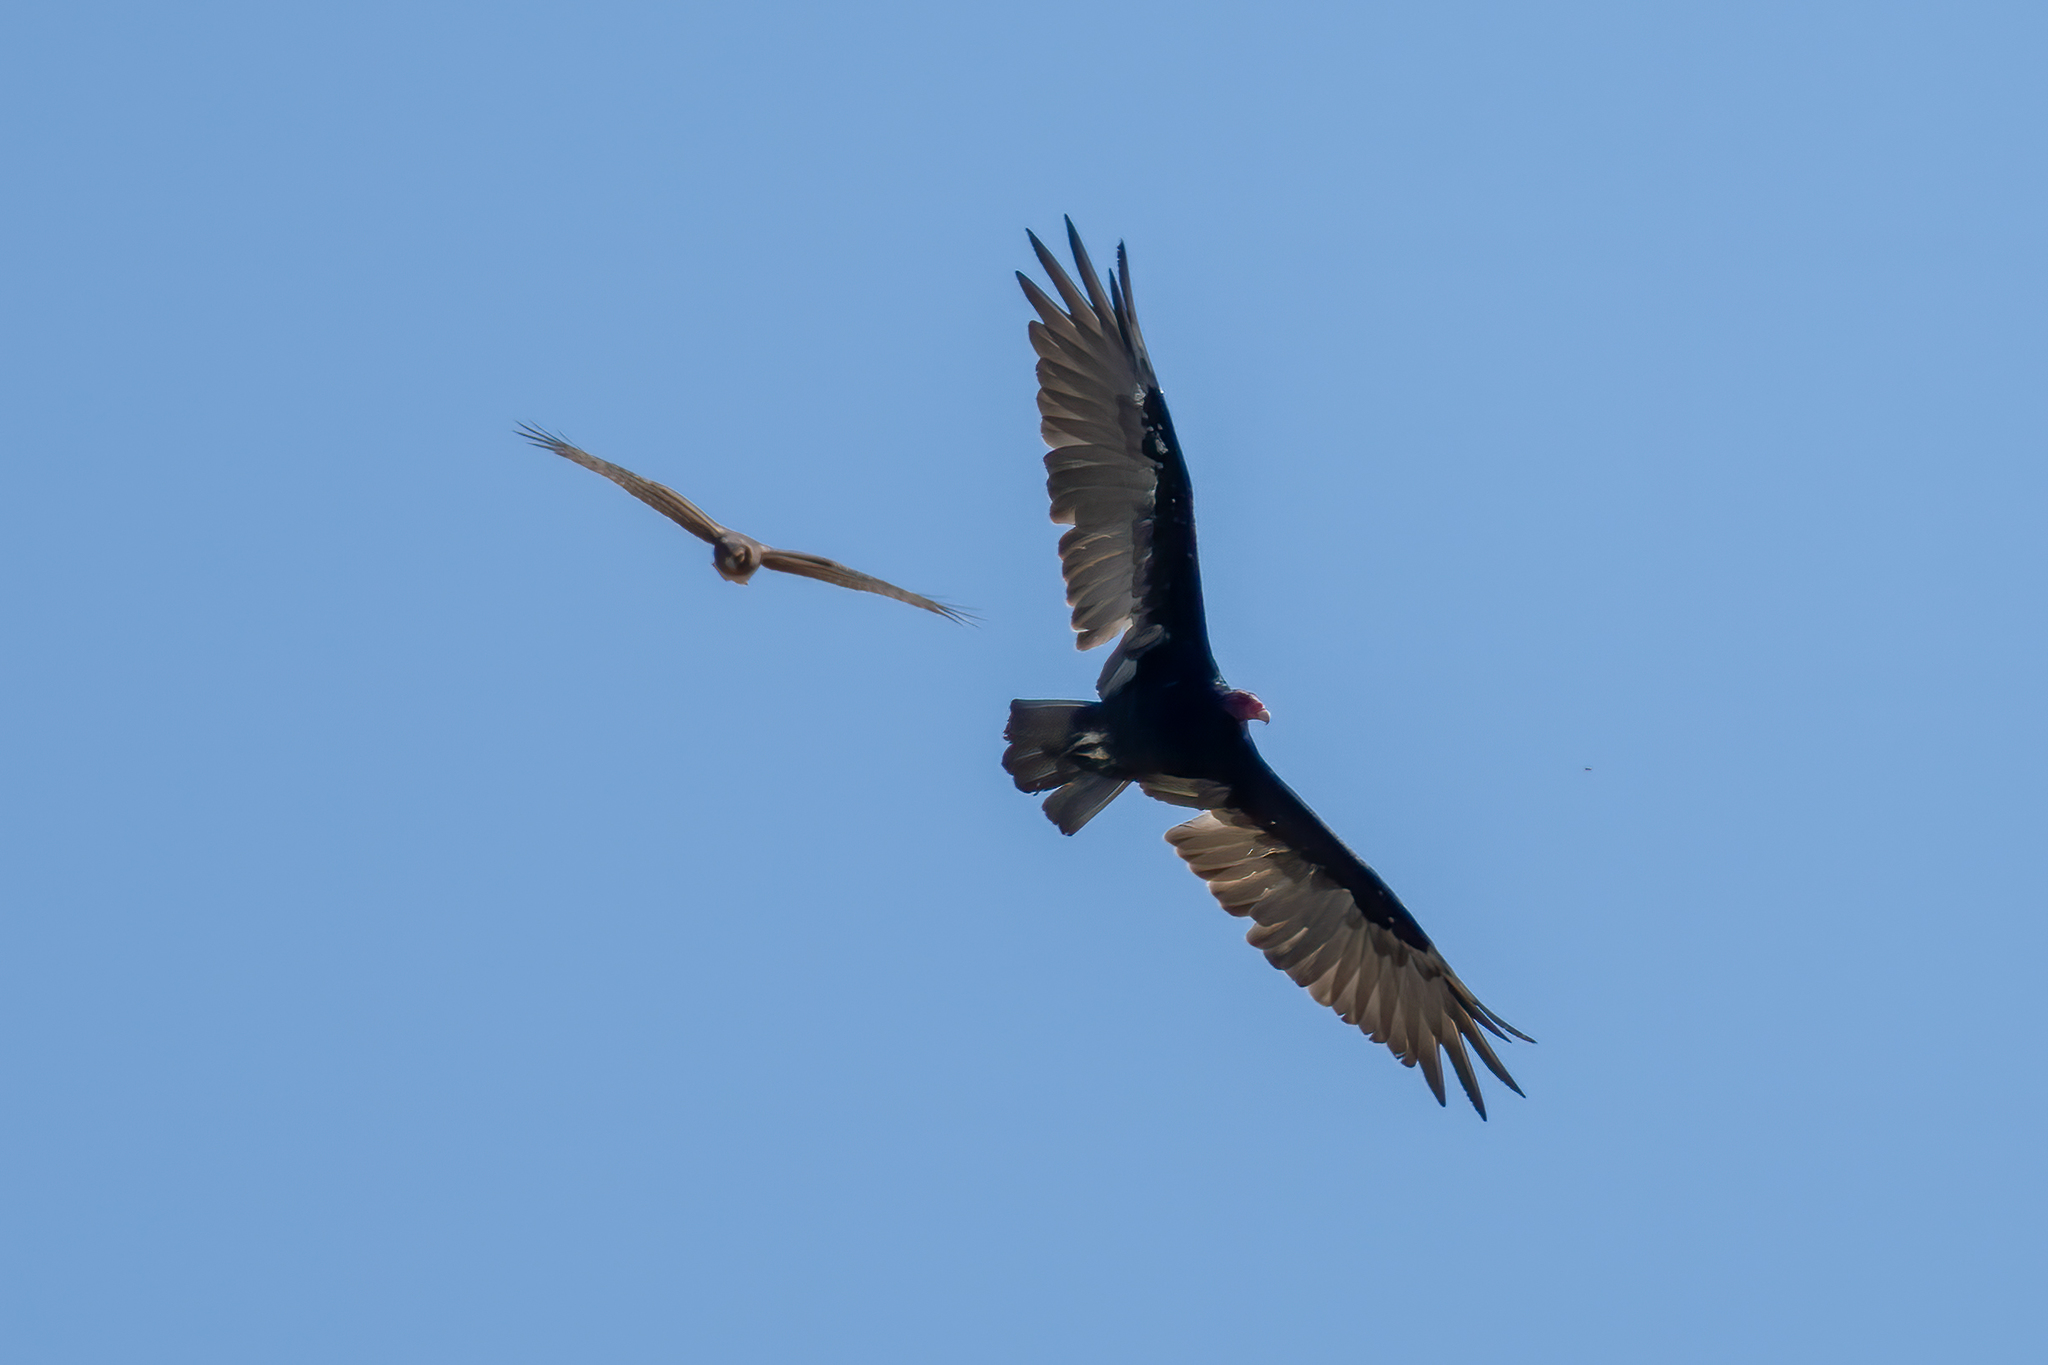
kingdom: Animalia
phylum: Chordata
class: Aves
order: Accipitriformes
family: Cathartidae
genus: Cathartes
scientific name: Cathartes aura
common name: Turkey vulture
